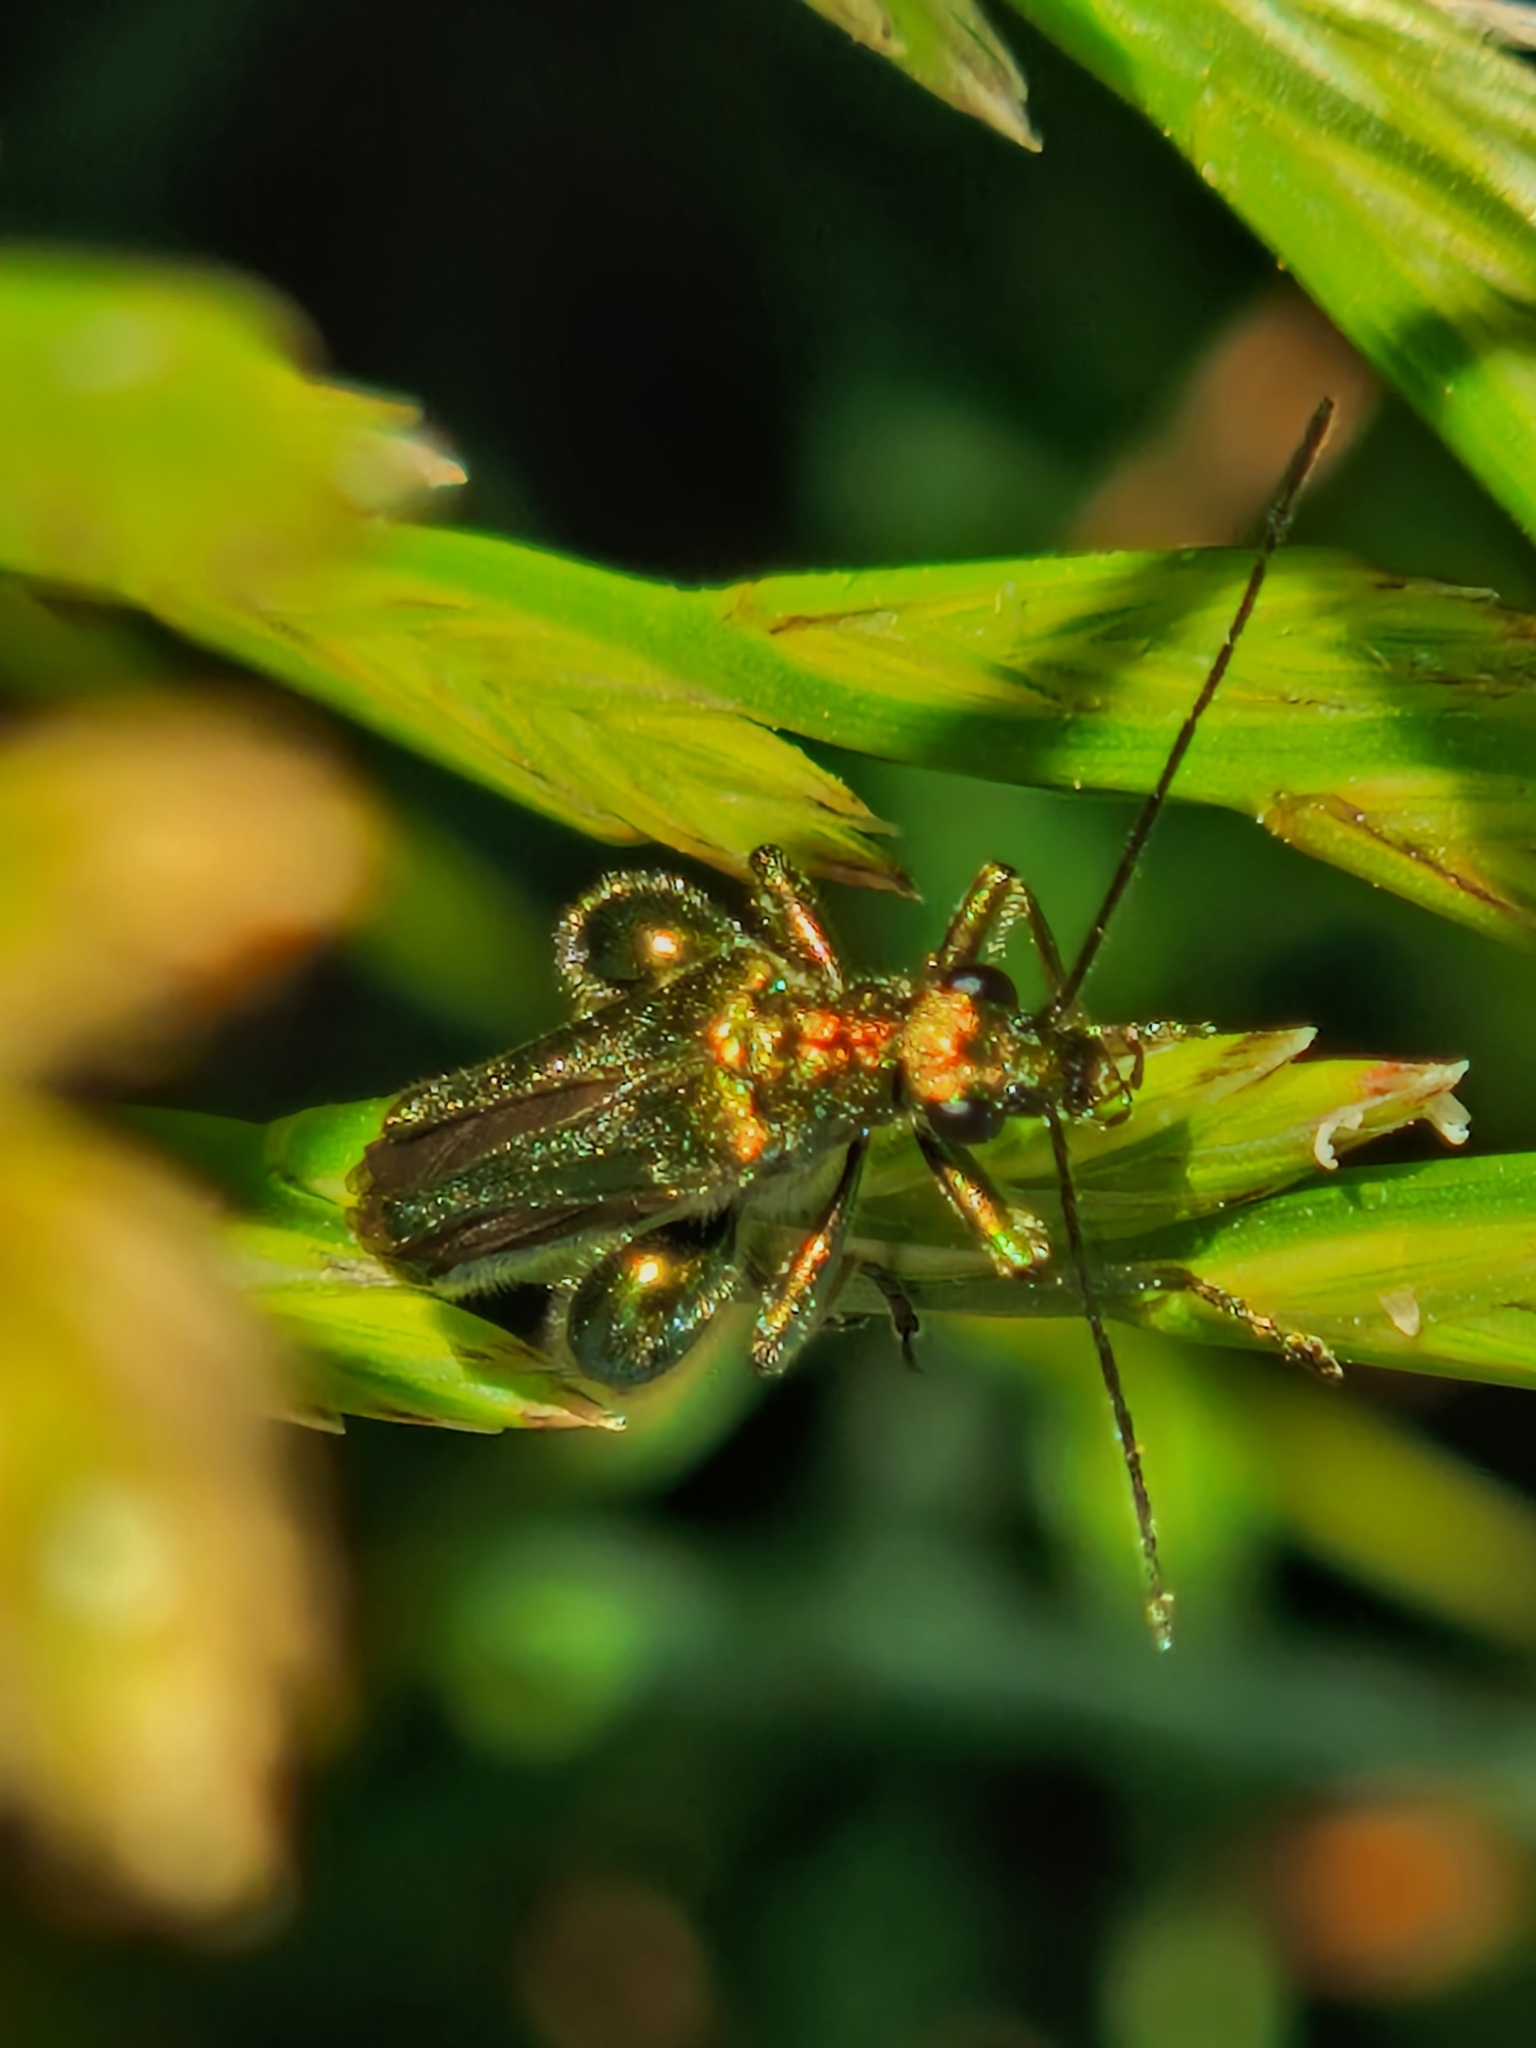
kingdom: Animalia
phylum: Arthropoda
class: Insecta
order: Coleoptera
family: Oedemeridae
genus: Oedemera
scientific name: Oedemera nobilis
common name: Swollen-thighed beetle
